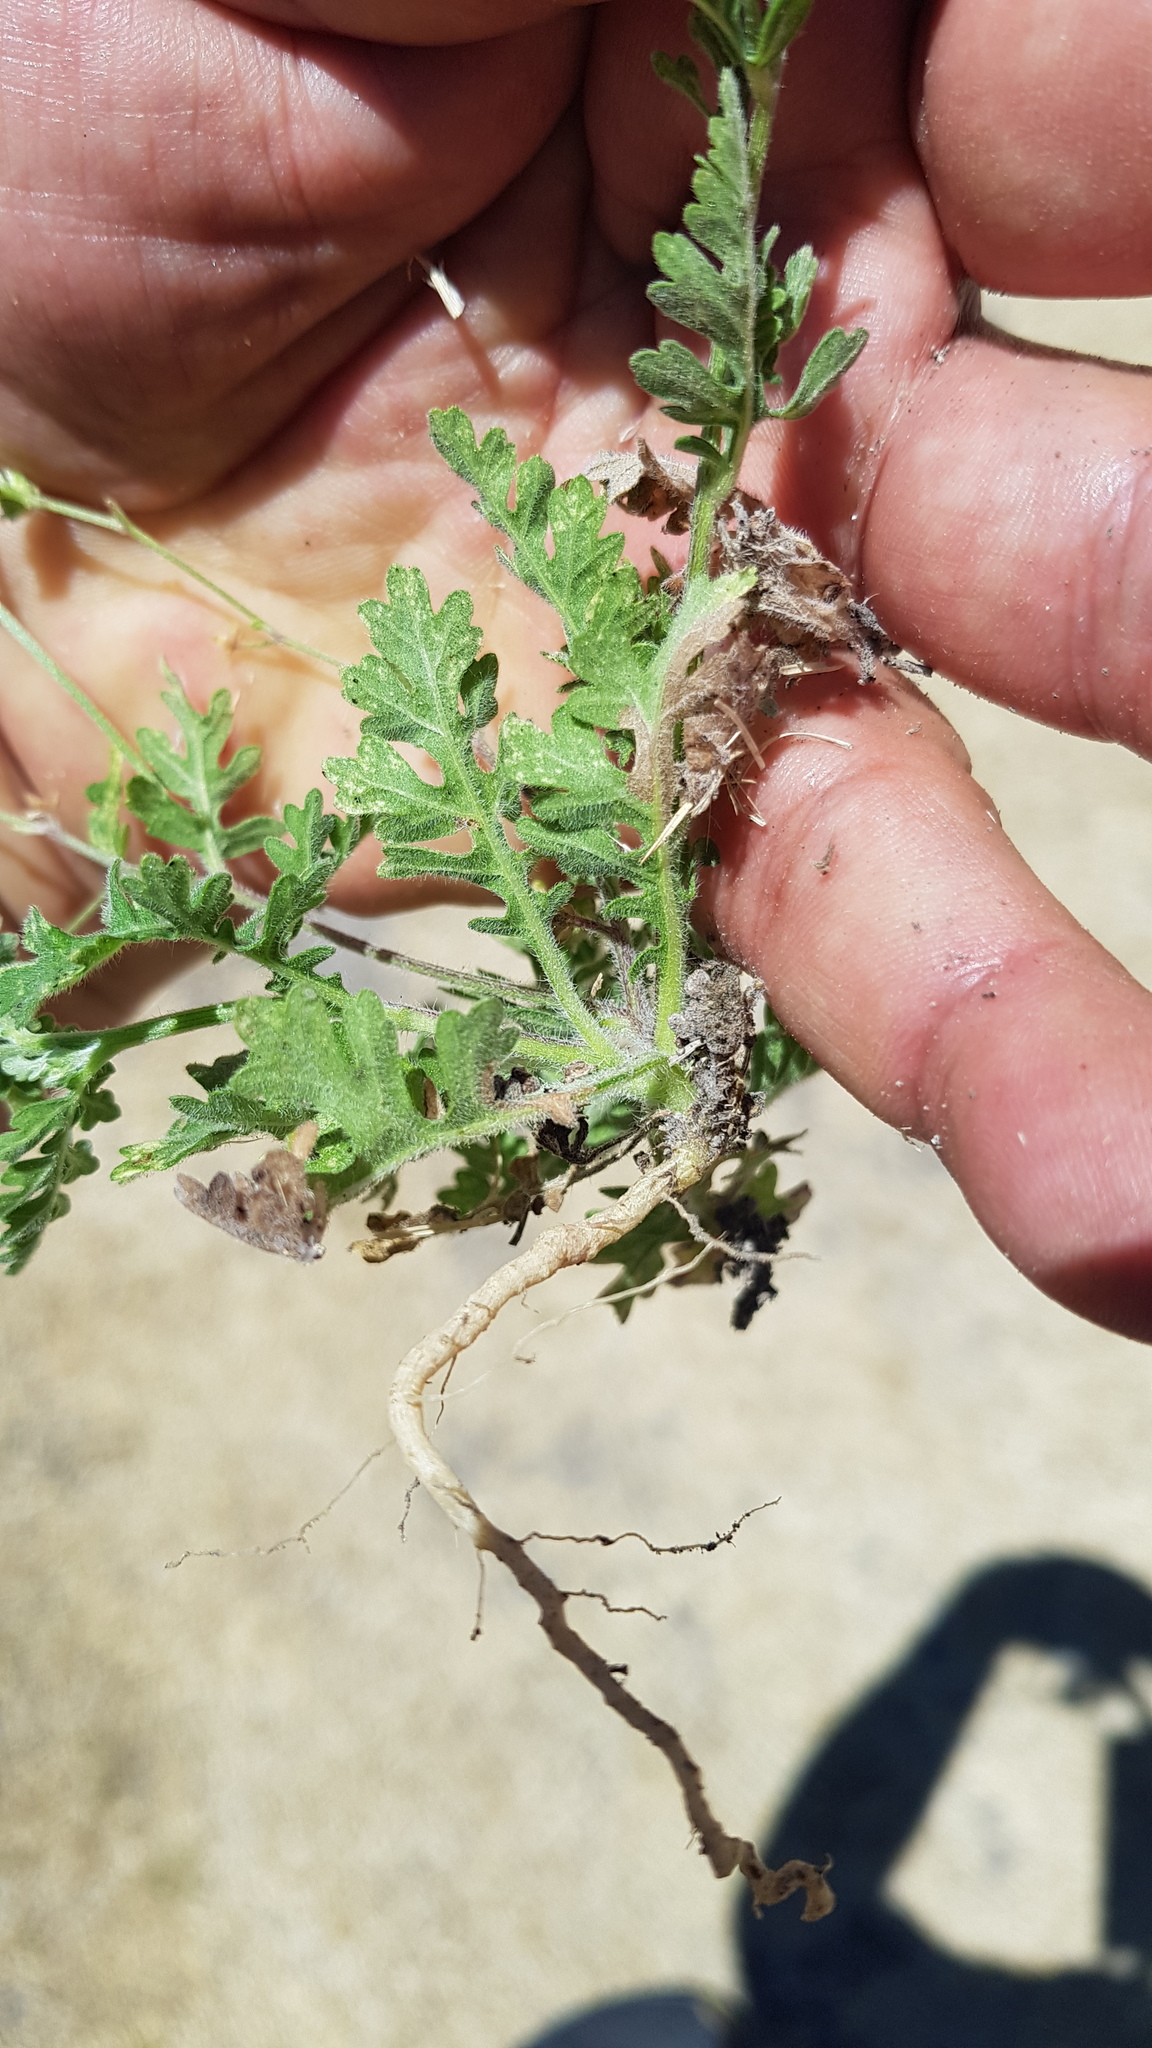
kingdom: Plantae
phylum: Tracheophyta
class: Magnoliopsida
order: Asterales
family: Asteraceae
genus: Parthenium
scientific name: Parthenium bipinnatifidum
